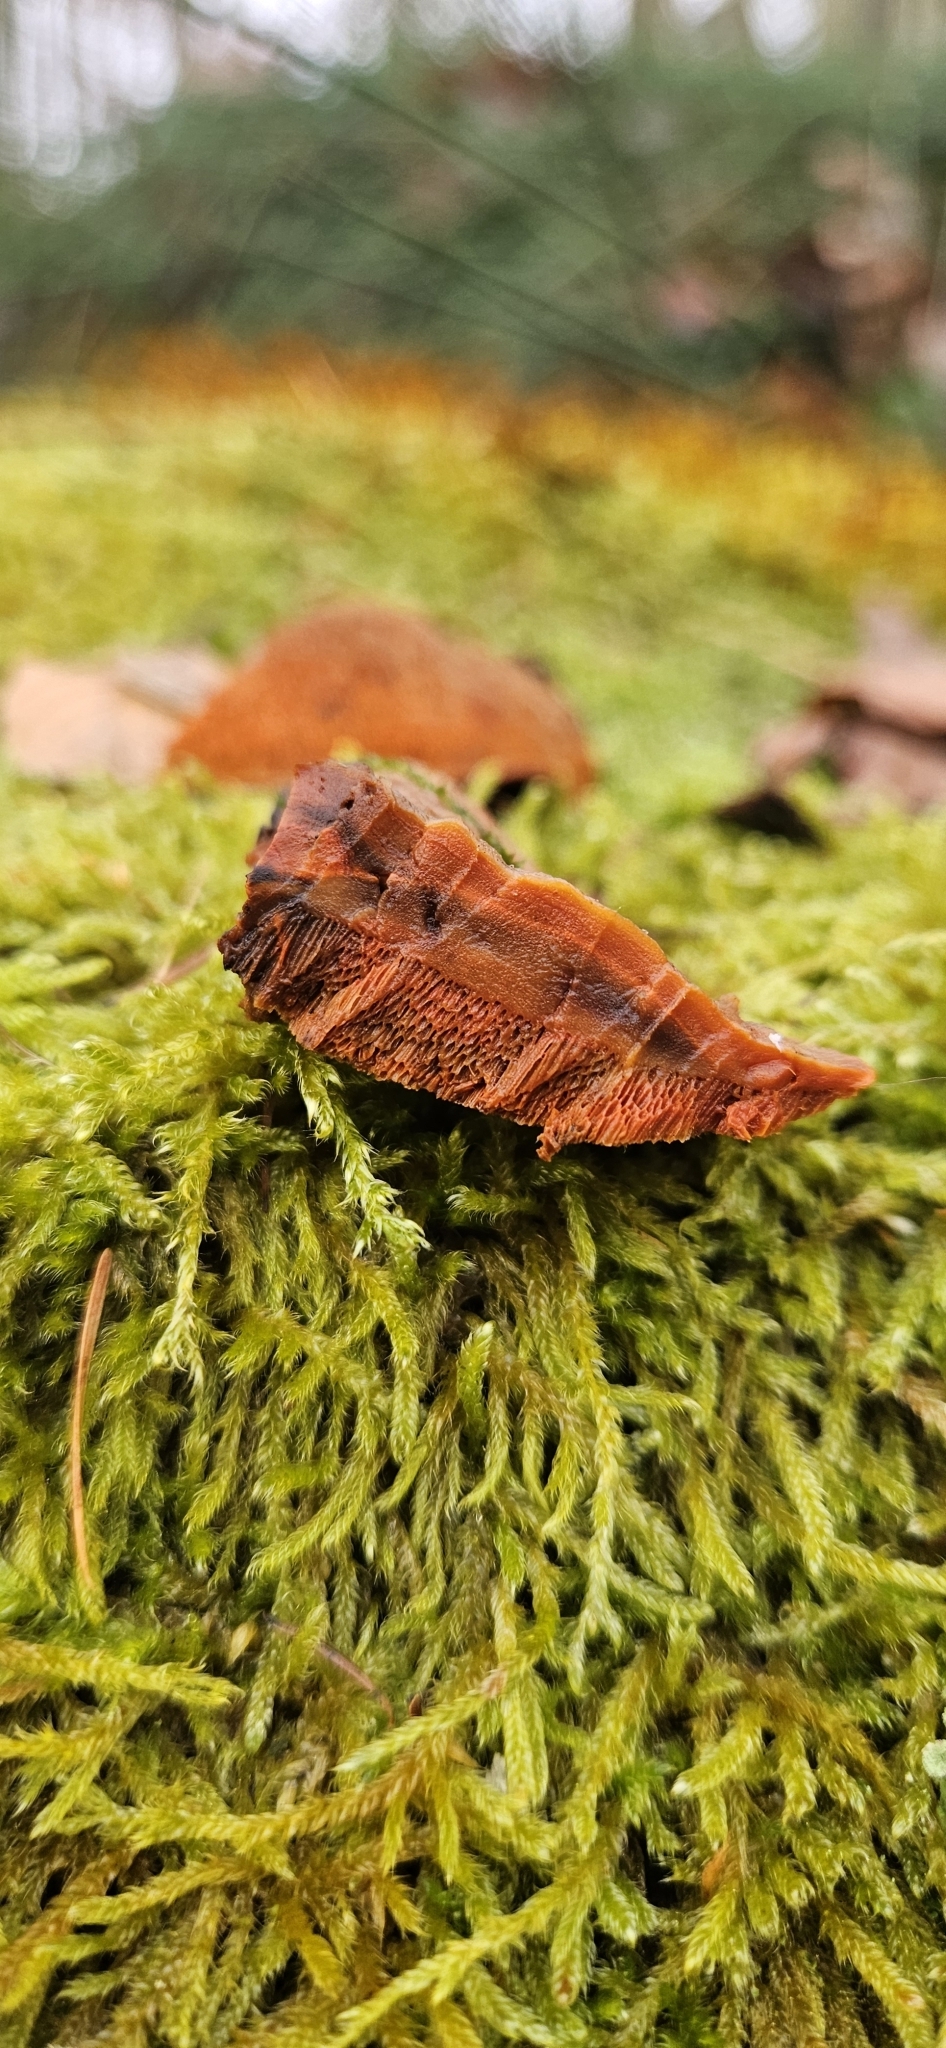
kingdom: Fungi
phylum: Basidiomycota
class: Agaricomycetes
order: Polyporales
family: Polyporaceae
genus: Trametes
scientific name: Trametes cinnabarina
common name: Northern cinnabar polypore
